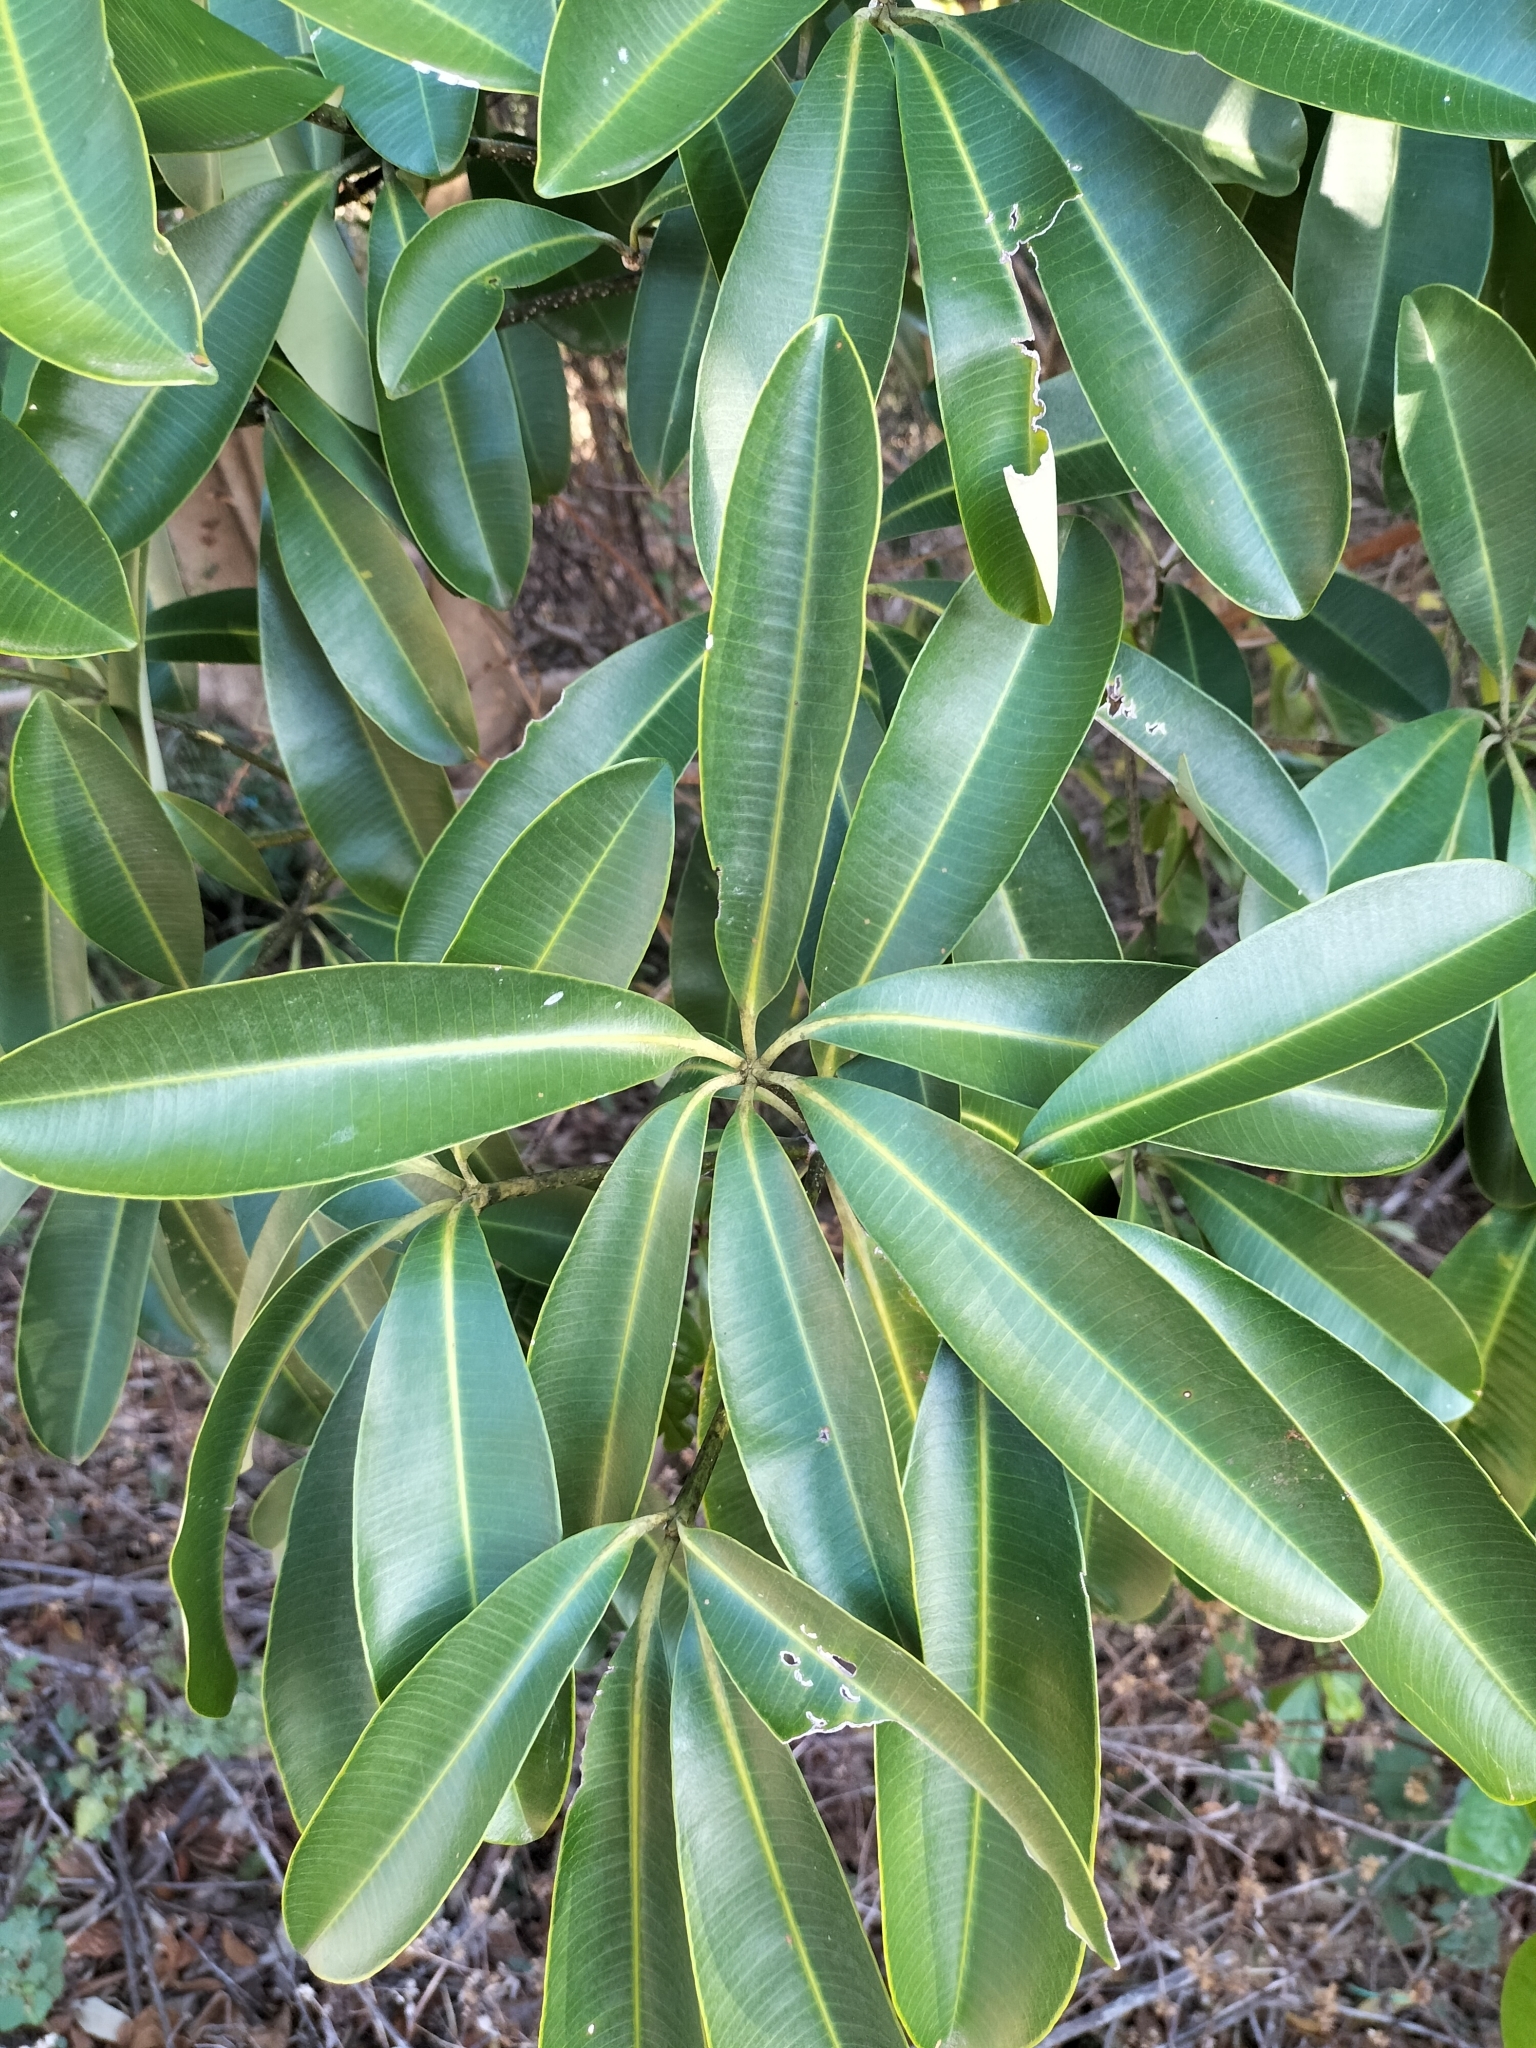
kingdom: Plantae
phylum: Tracheophyta
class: Magnoliopsida
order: Gentianales
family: Apocynaceae
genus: Alstonia
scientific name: Alstonia scholaris
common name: White cheesewood
